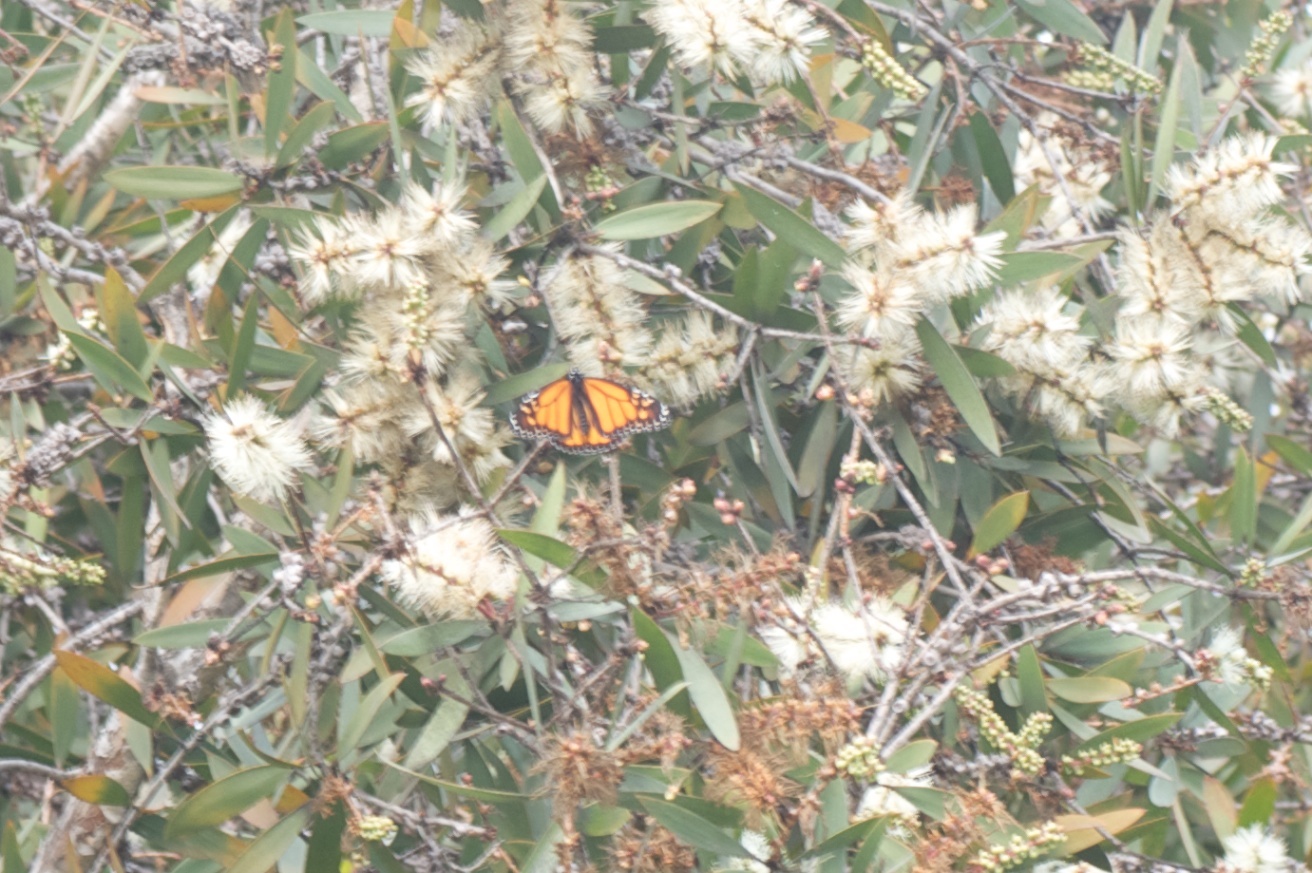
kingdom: Animalia
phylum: Arthropoda
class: Insecta
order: Lepidoptera
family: Nymphalidae
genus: Danaus
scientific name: Danaus plexippus
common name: Monarch
